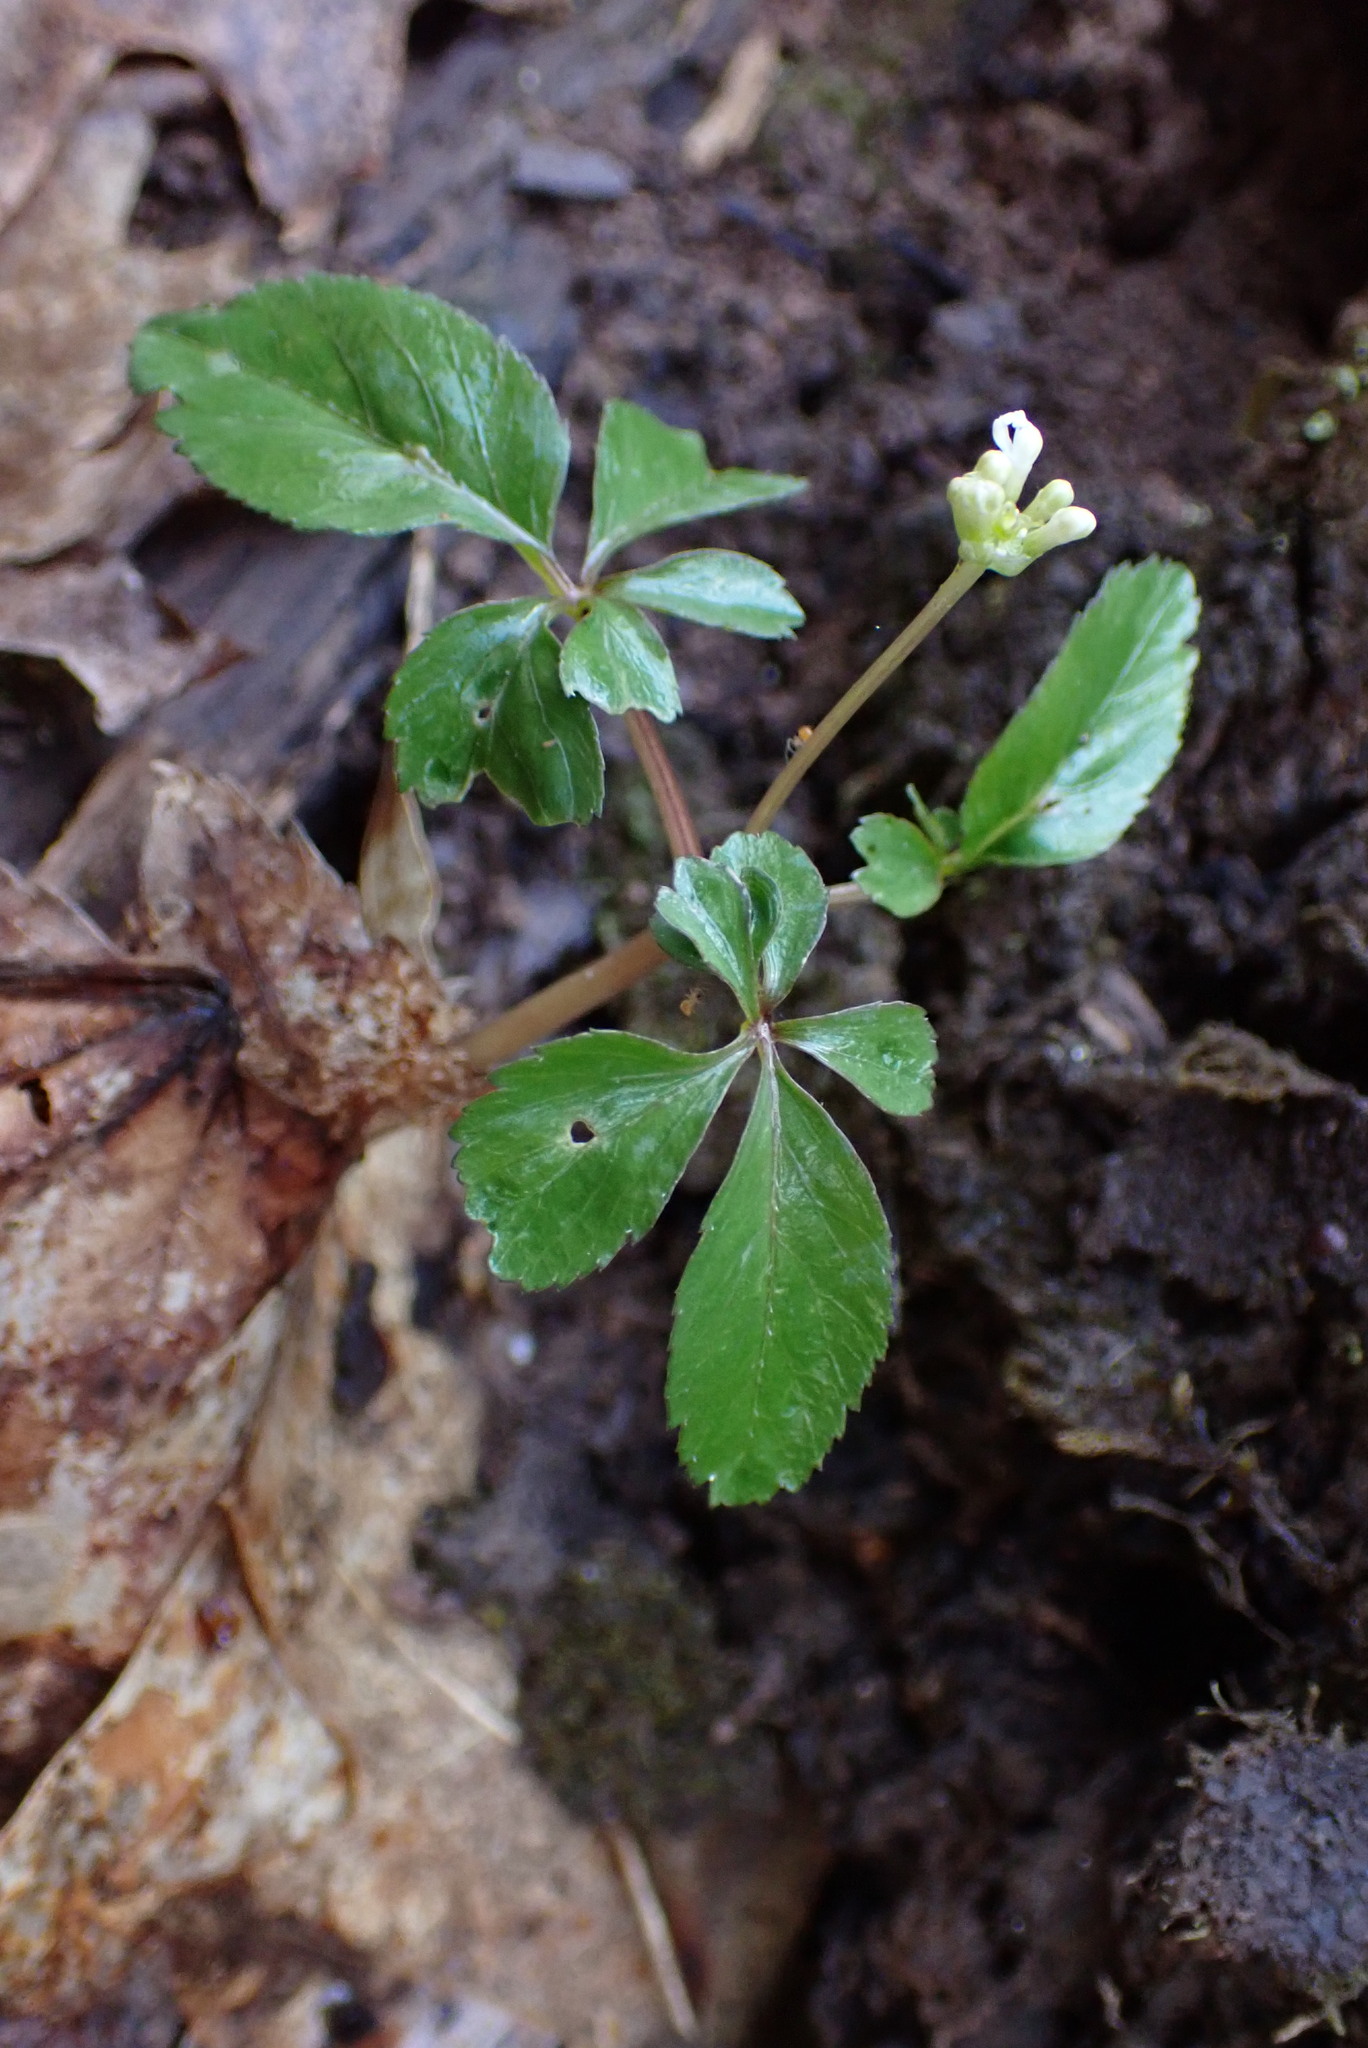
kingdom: Plantae
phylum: Tracheophyta
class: Magnoliopsida
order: Apiales
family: Araliaceae
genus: Panax
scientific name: Panax trifolius
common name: Dwarf ginseng
